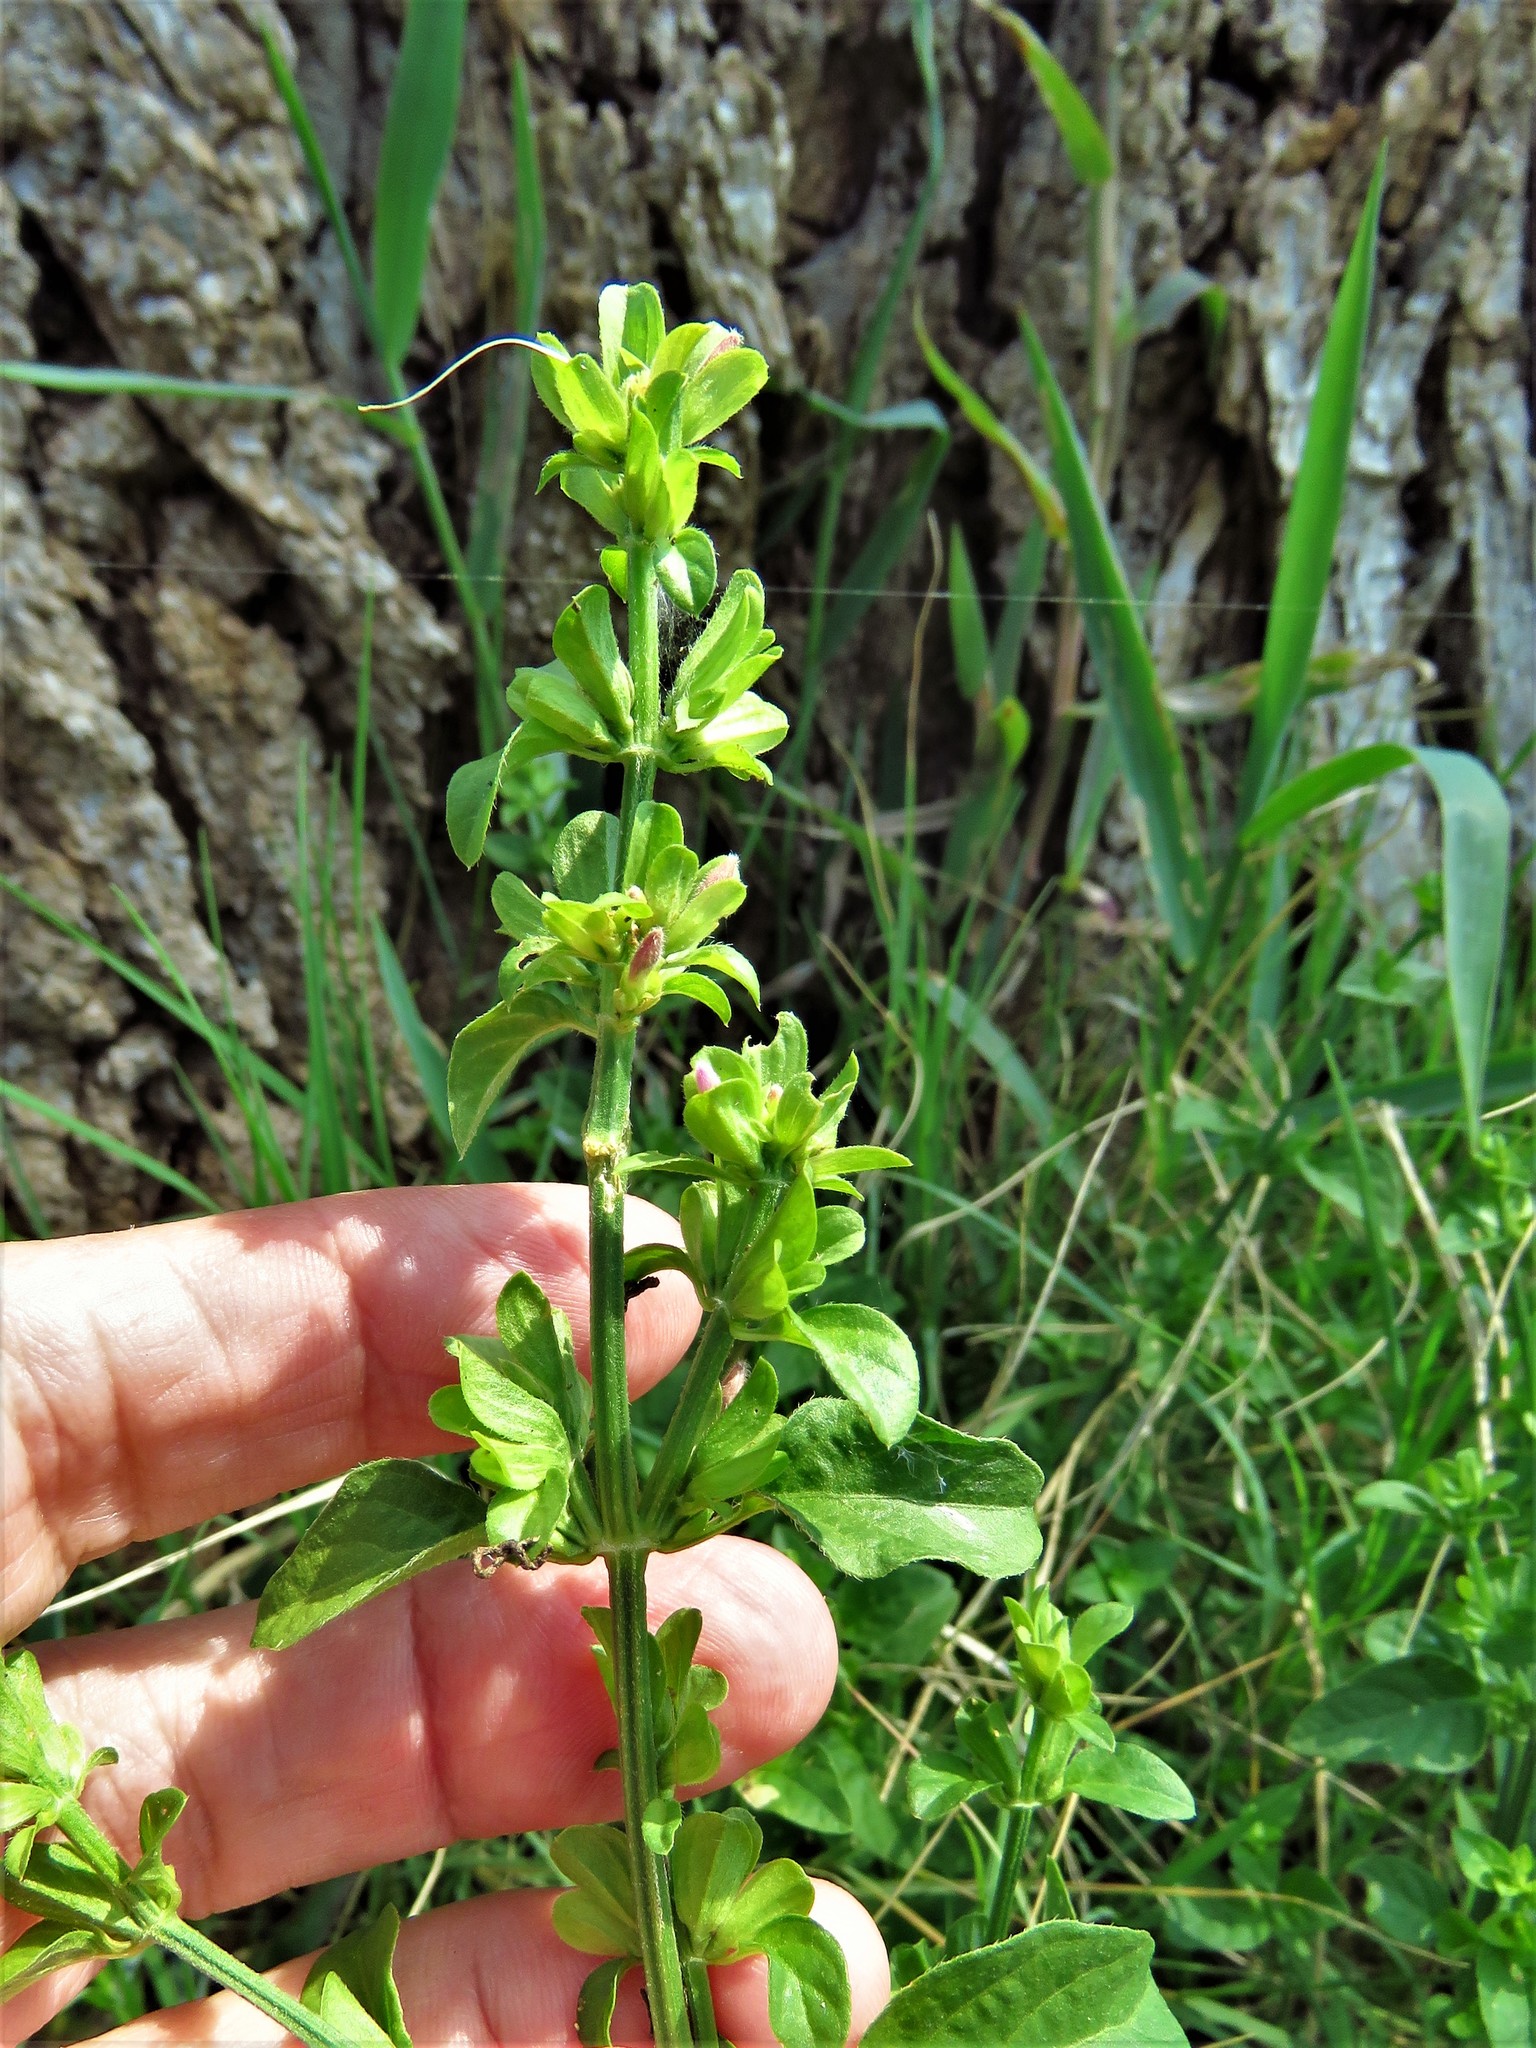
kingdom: Plantae
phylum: Tracheophyta
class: Magnoliopsida
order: Lamiales
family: Acanthaceae
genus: Dicliptera
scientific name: Dicliptera brachiata
